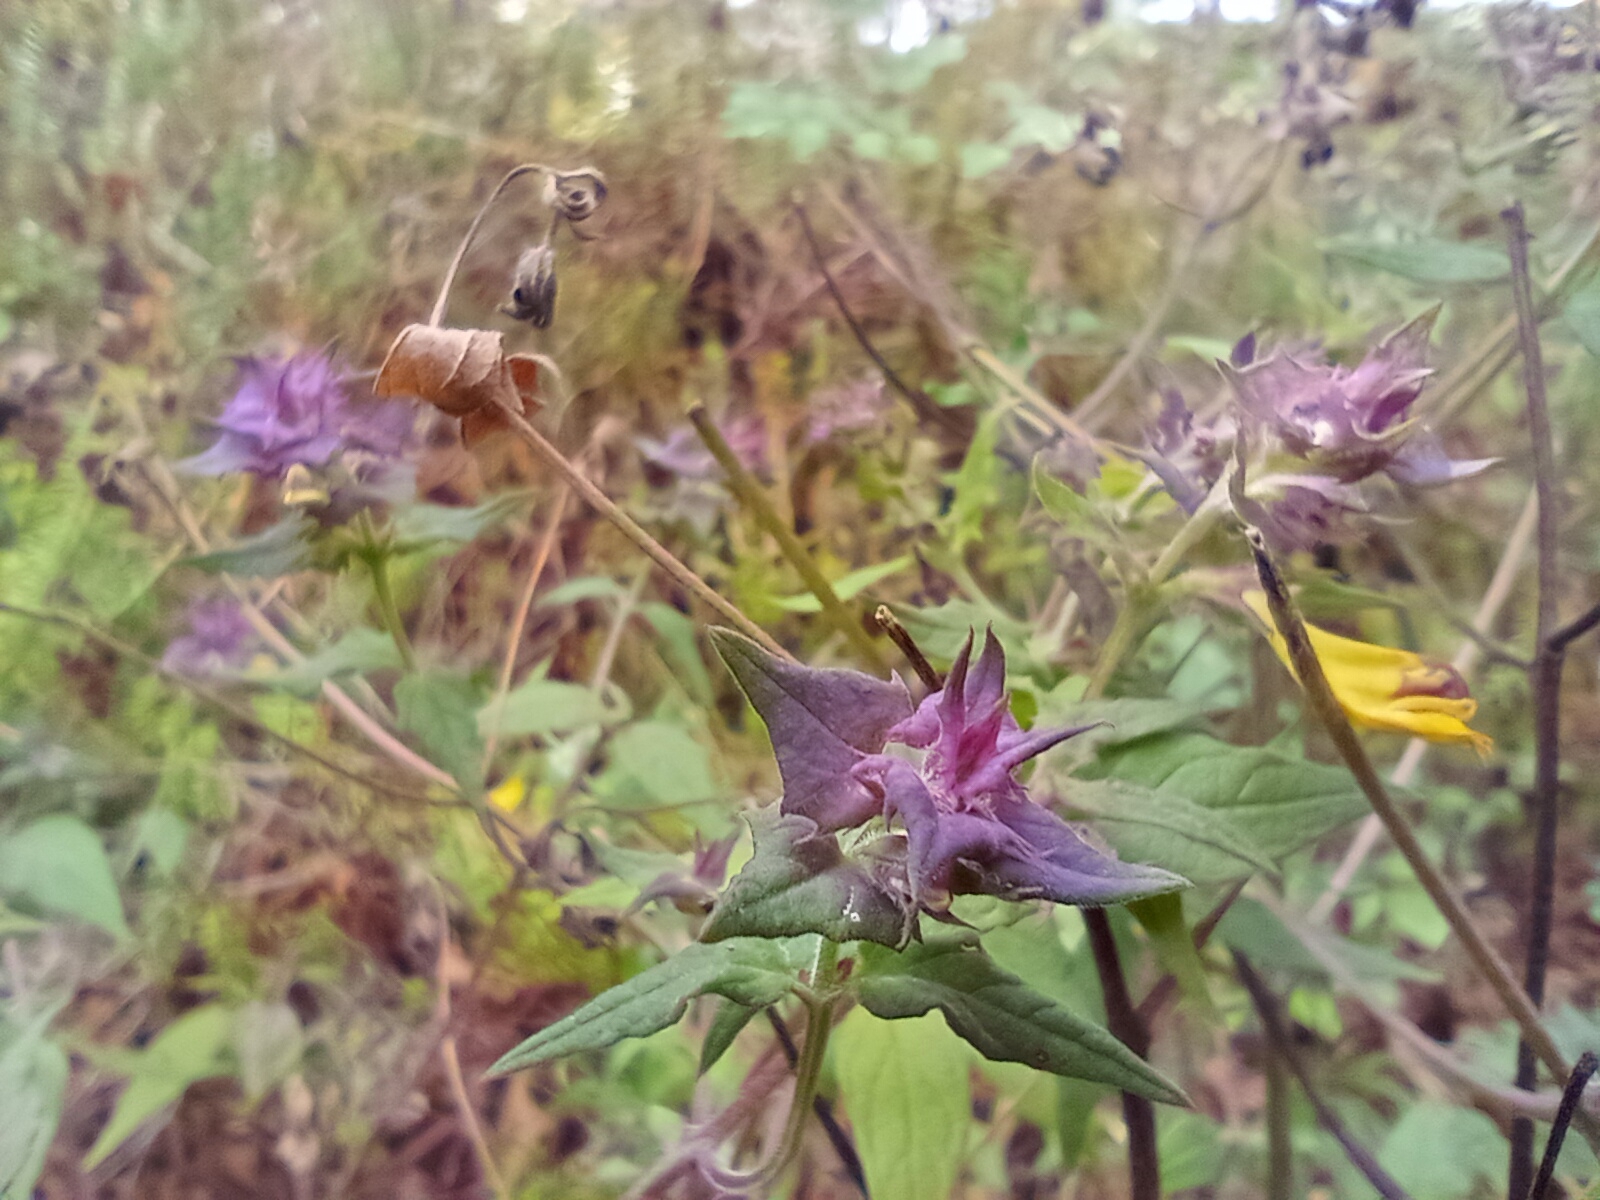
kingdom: Plantae
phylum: Tracheophyta
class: Magnoliopsida
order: Lamiales
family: Orobanchaceae
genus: Melampyrum
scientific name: Melampyrum nemorosum
